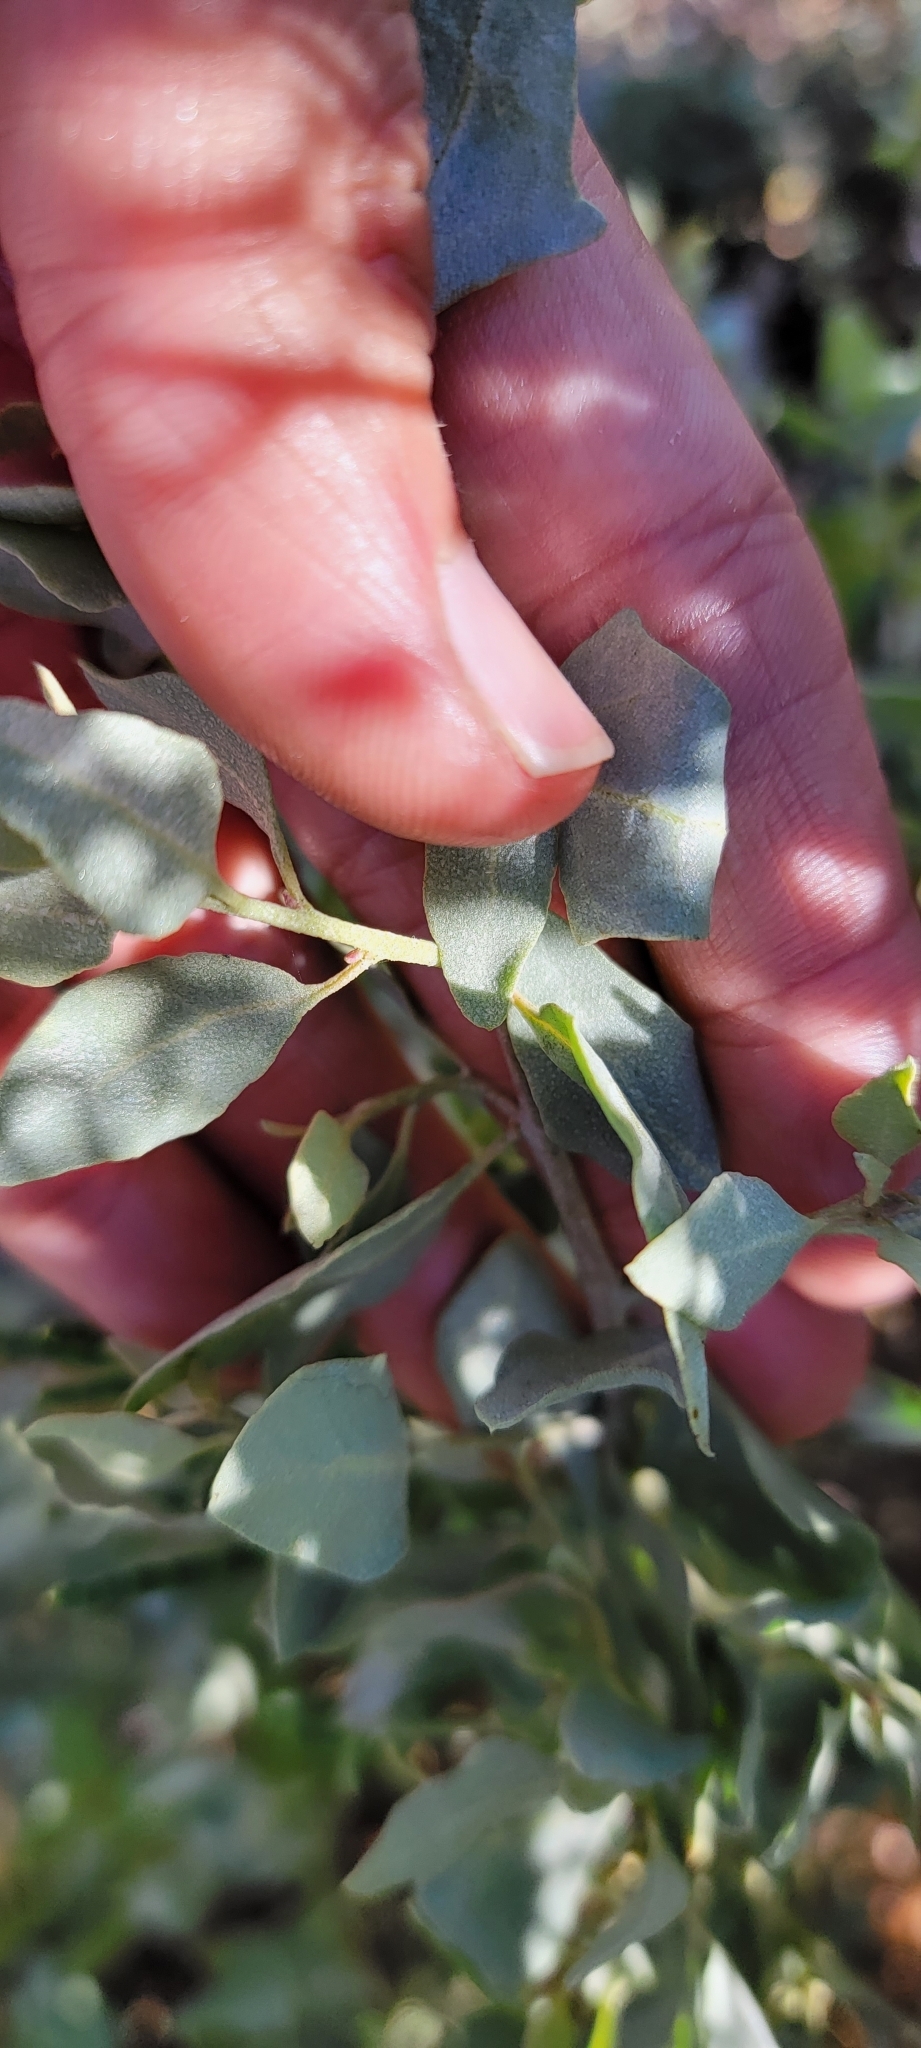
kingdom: Plantae
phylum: Tracheophyta
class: Magnoliopsida
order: Caryophyllales
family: Amaranthaceae
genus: Atriplex
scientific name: Atriplex lentiformis
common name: Big saltbush
